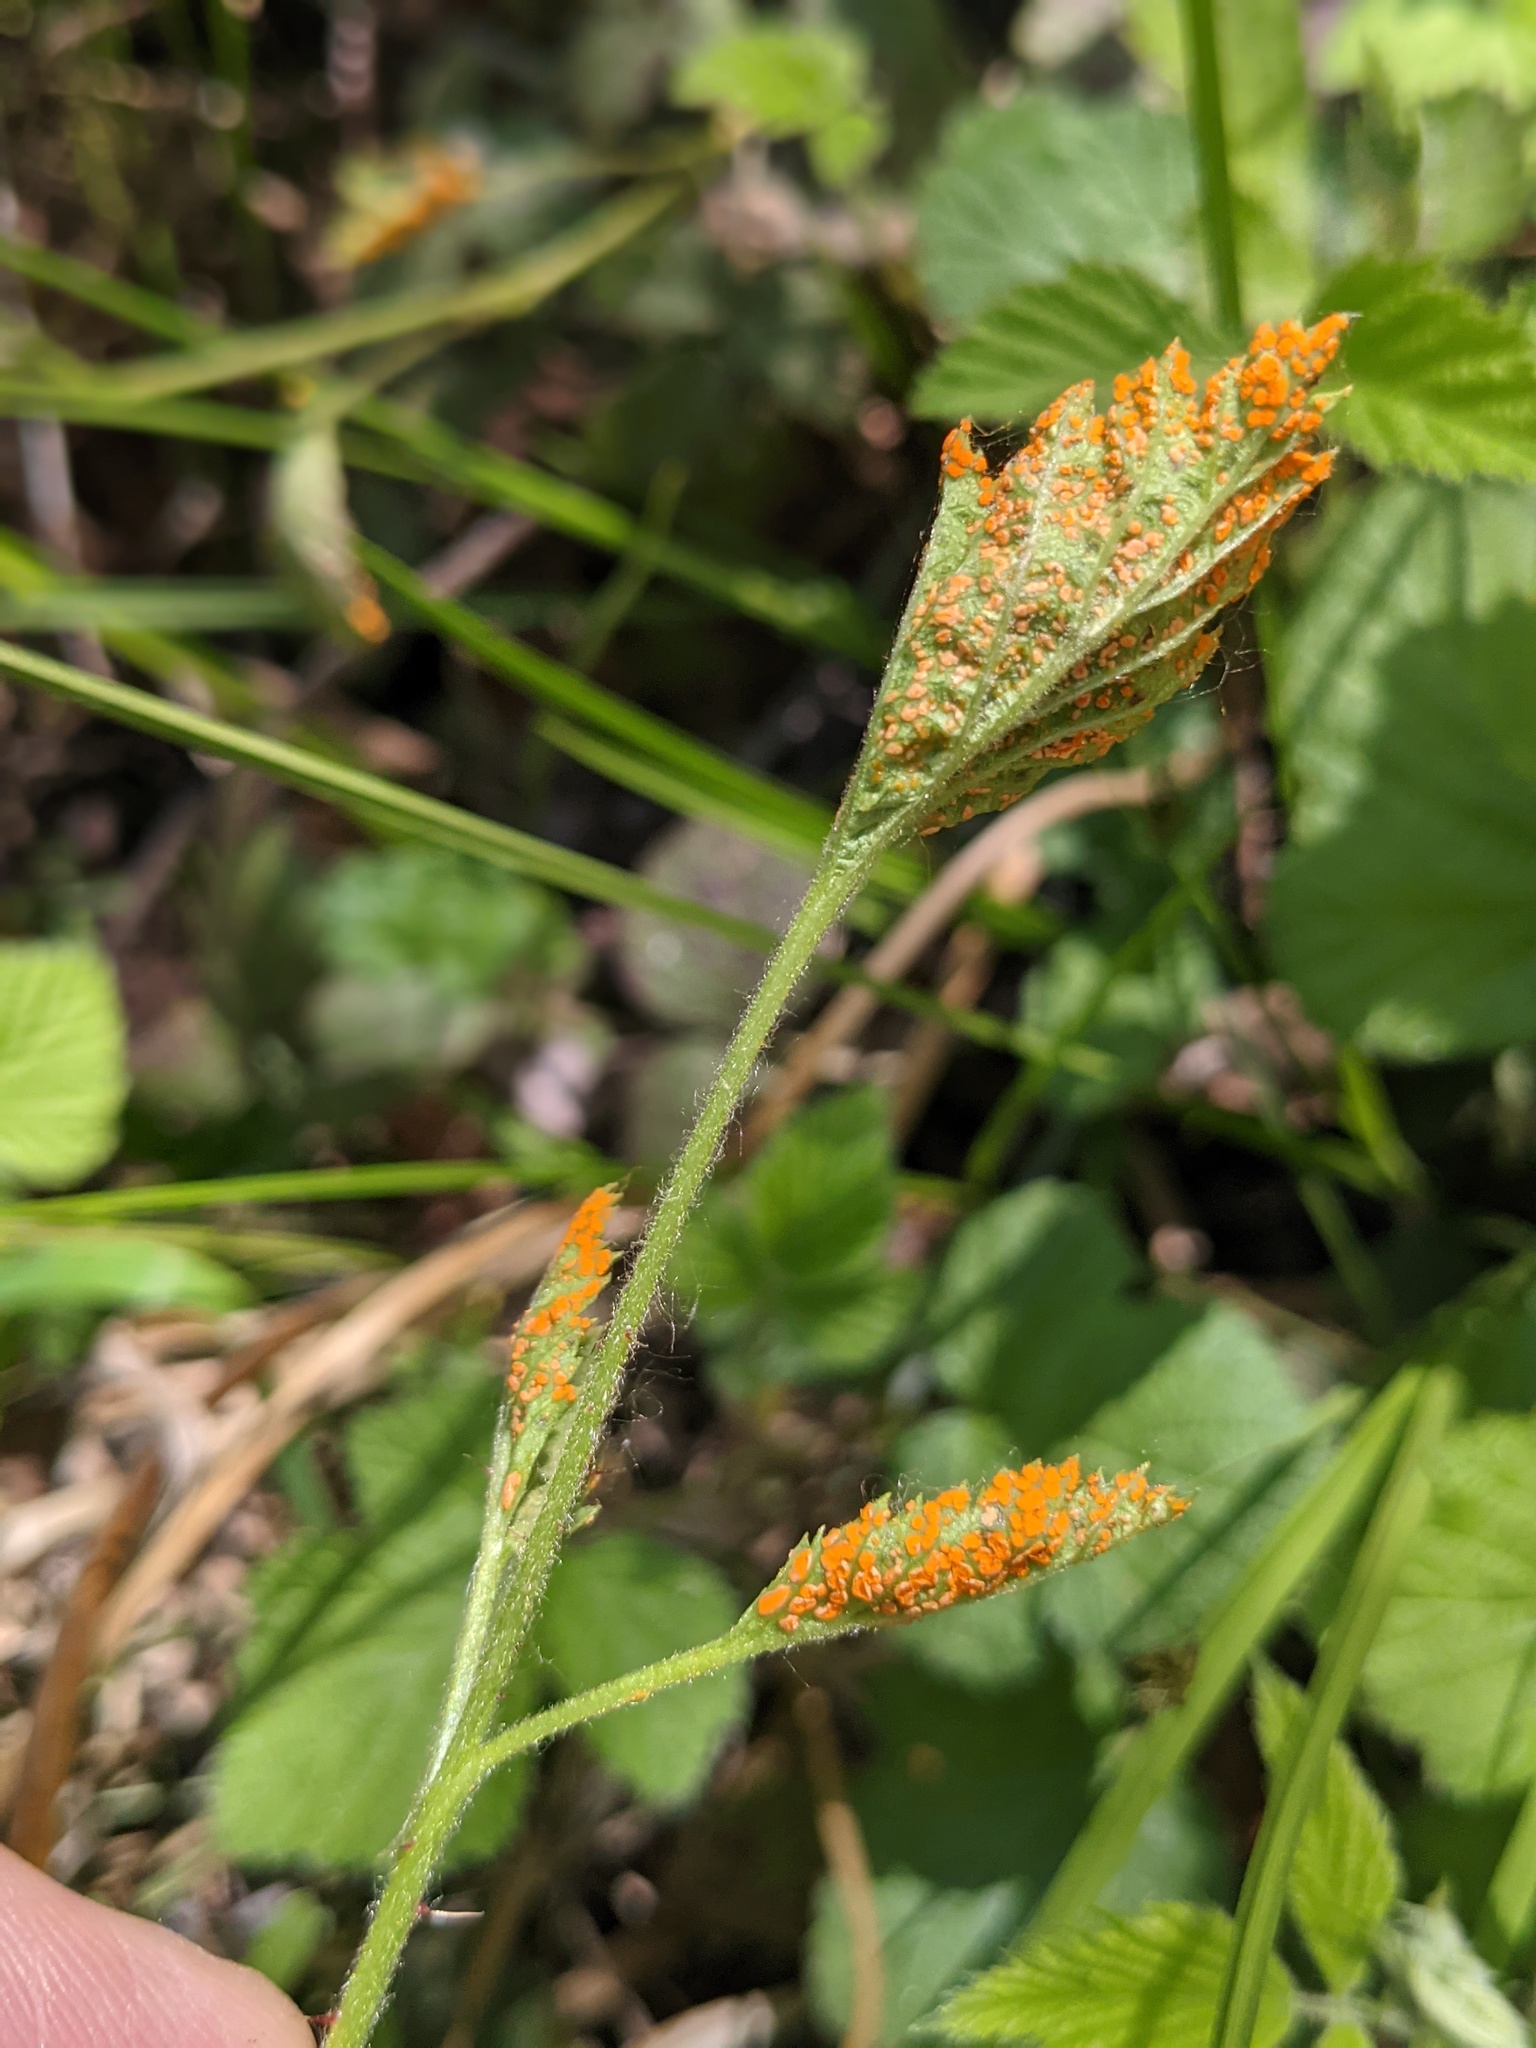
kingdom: Fungi
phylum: Basidiomycota
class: Pucciniomycetes
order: Pucciniales
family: Phragmidiaceae
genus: Arthuriomyces
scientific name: Arthuriomyces peckianus
